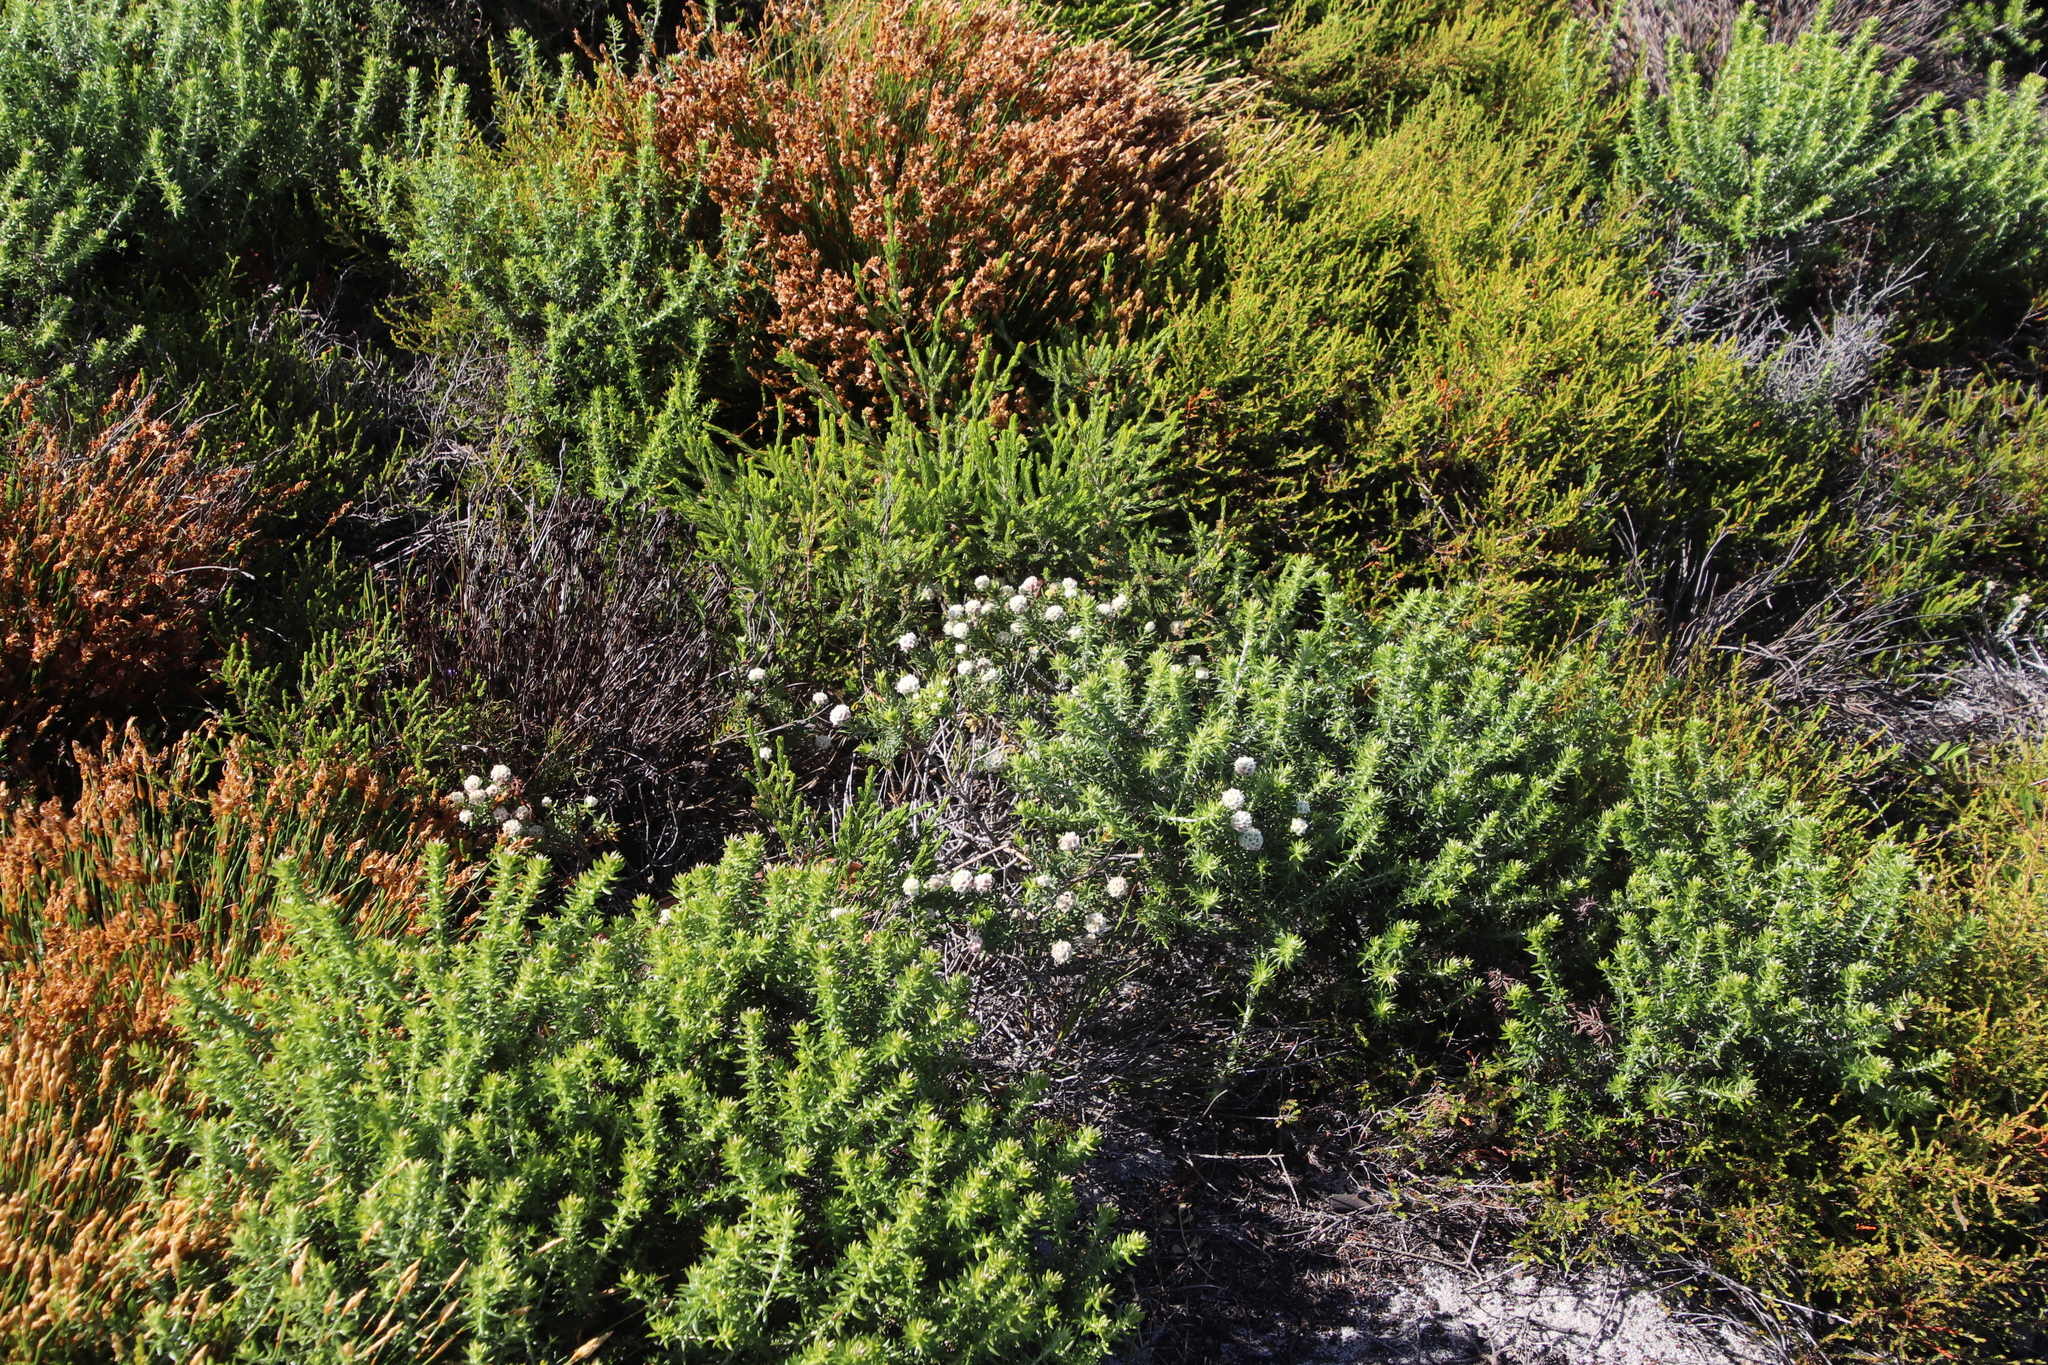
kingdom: Plantae
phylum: Tracheophyta
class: Magnoliopsida
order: Malvales
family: Thymelaeaceae
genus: Lachnaea
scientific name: Lachnaea densiflora
